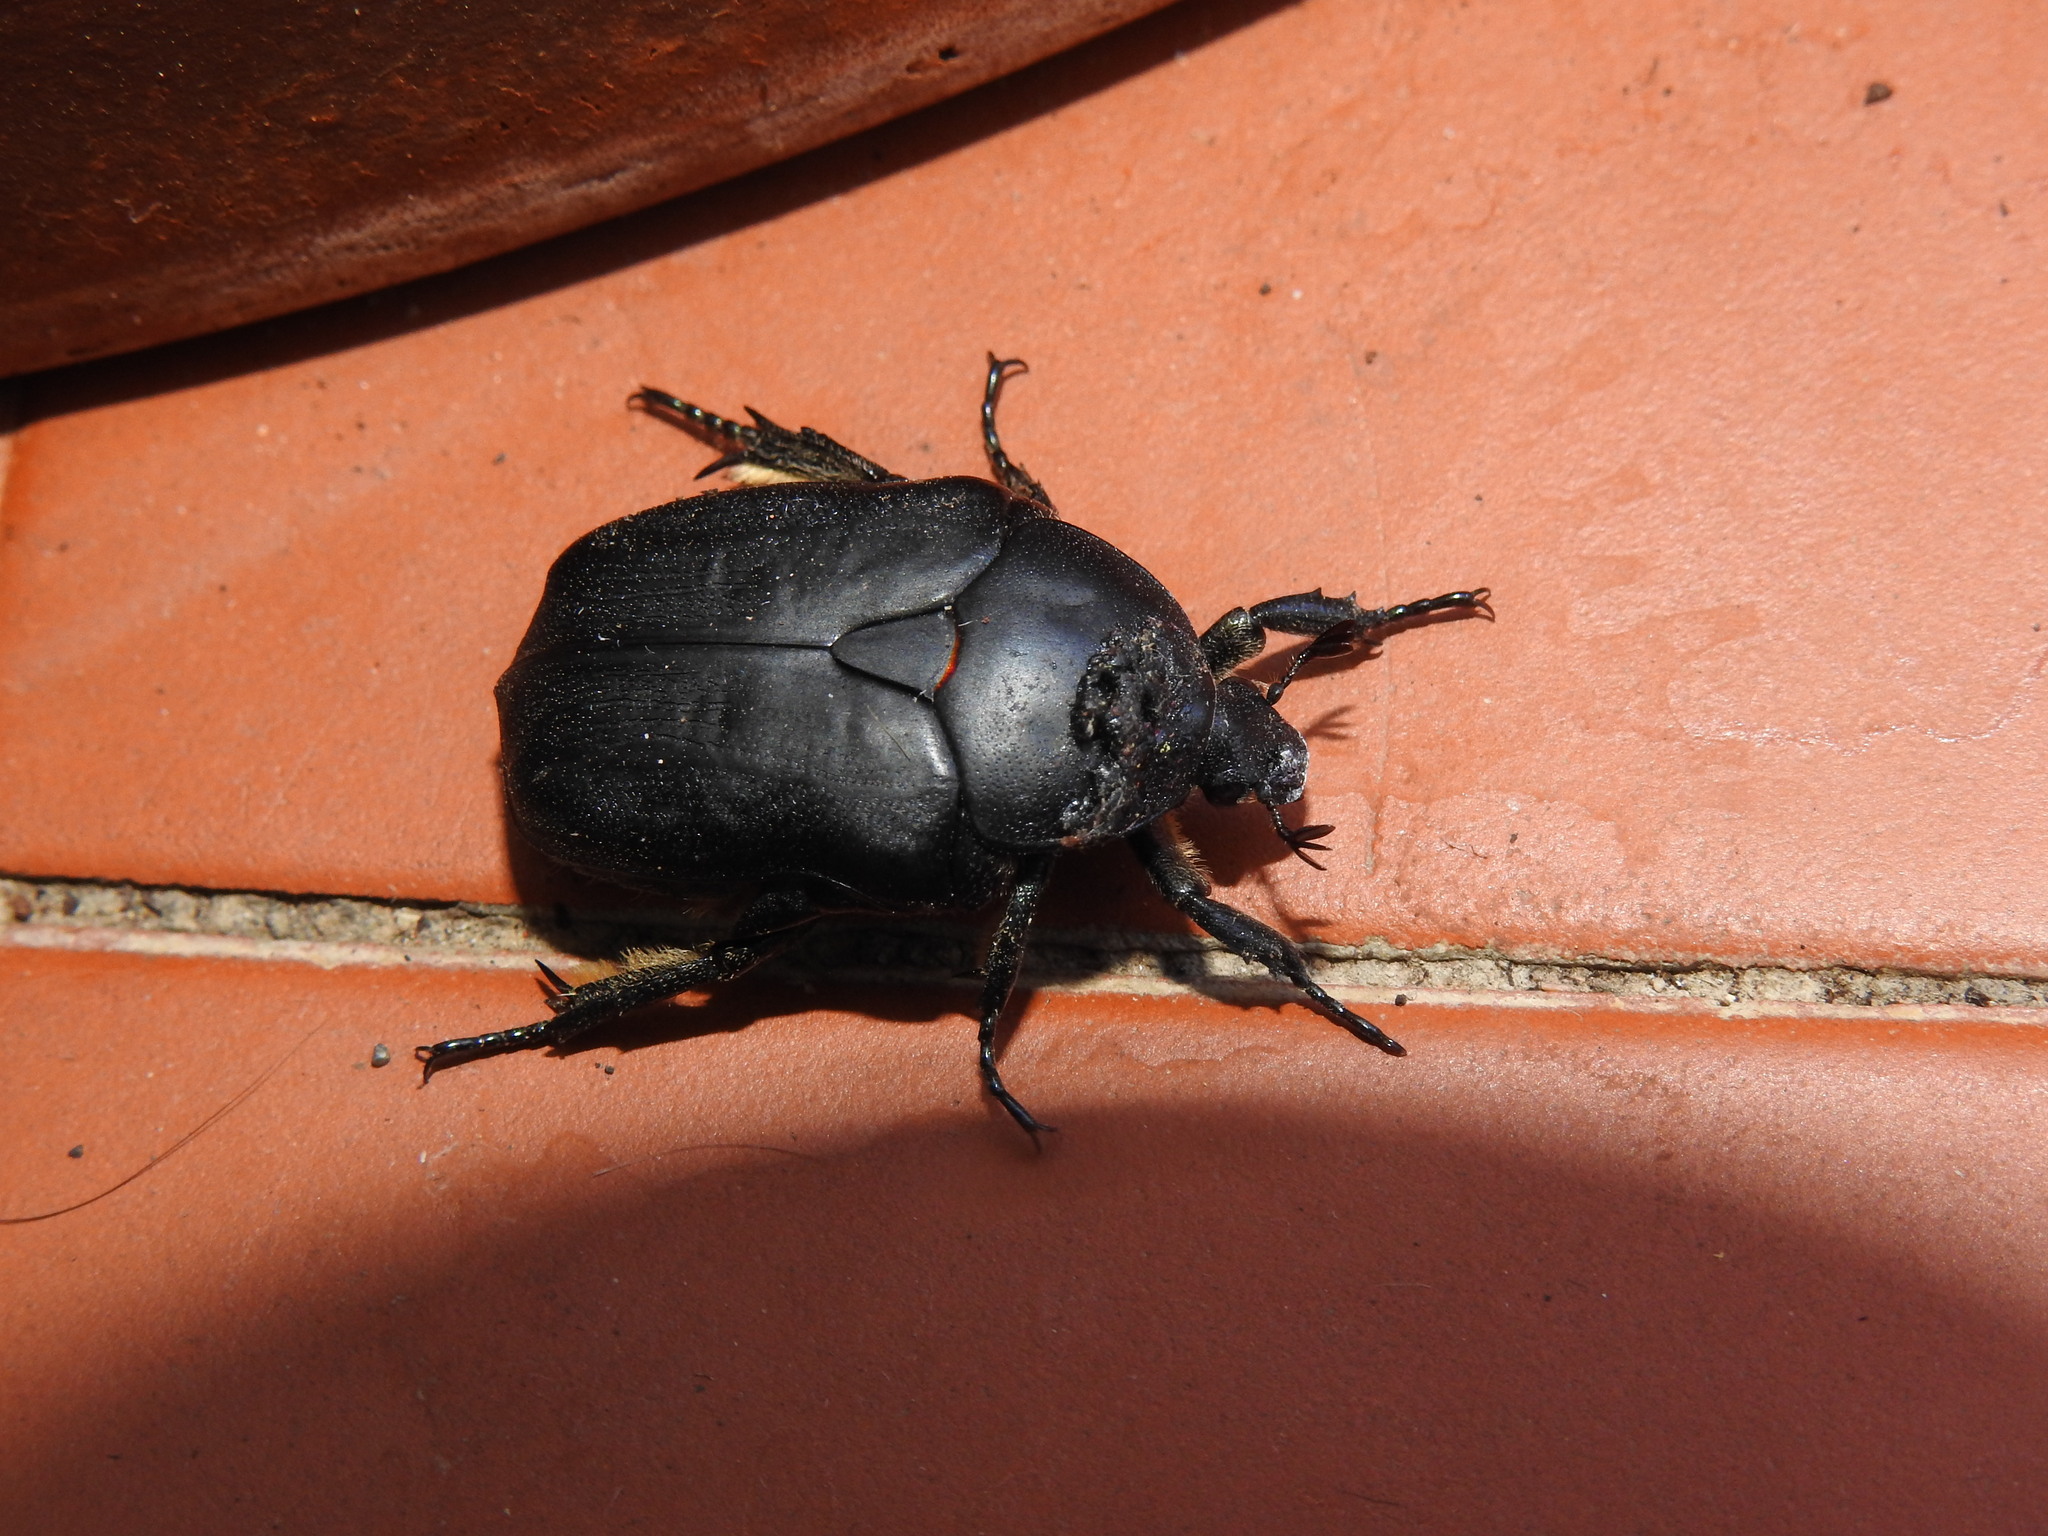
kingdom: Animalia
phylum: Arthropoda
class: Insecta
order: Coleoptera
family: Scarabaeidae
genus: Protaetia
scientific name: Protaetia opaca
